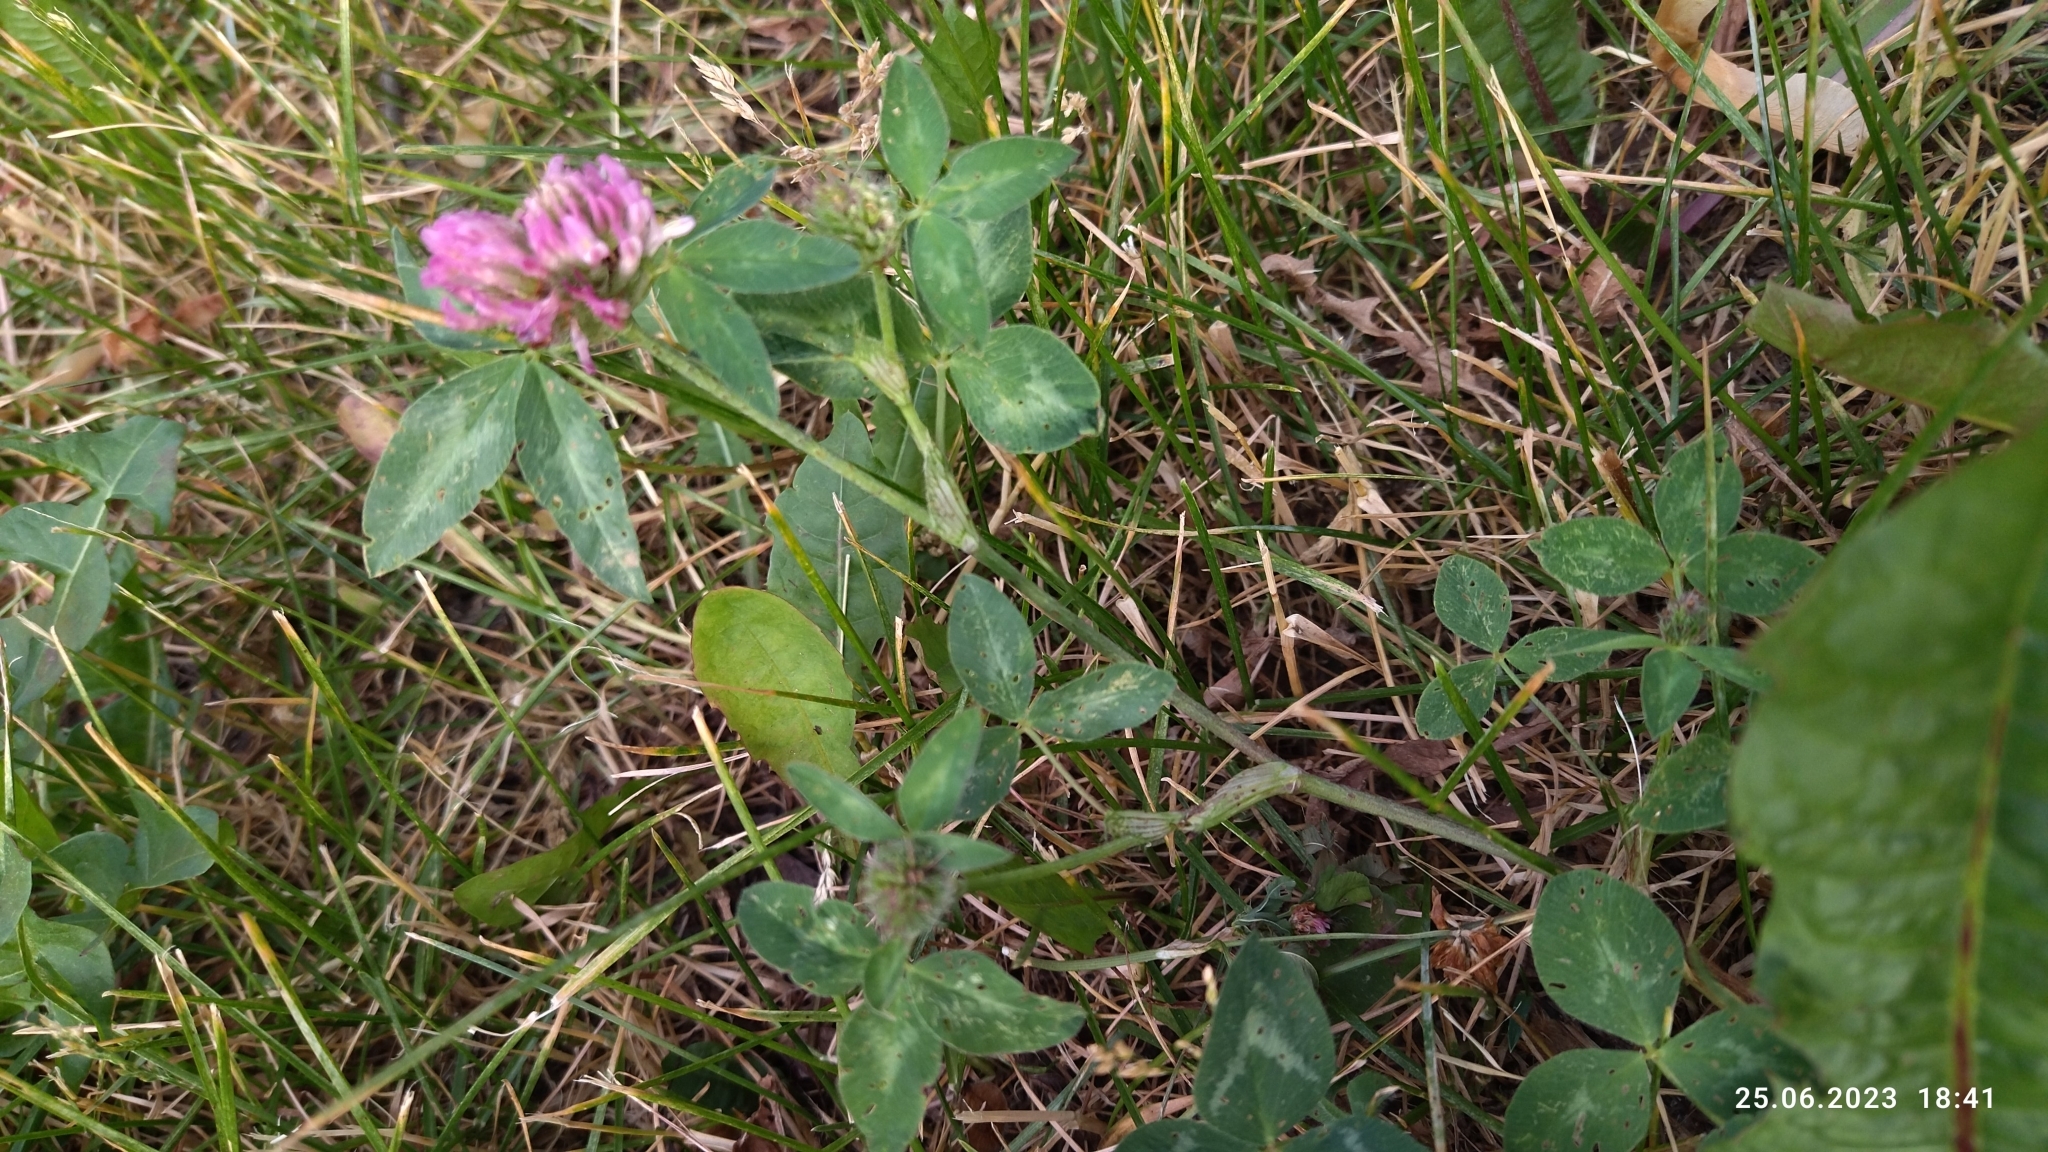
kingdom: Plantae
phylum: Tracheophyta
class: Magnoliopsida
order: Fabales
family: Fabaceae
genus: Trifolium
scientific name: Trifolium pratense
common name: Red clover
